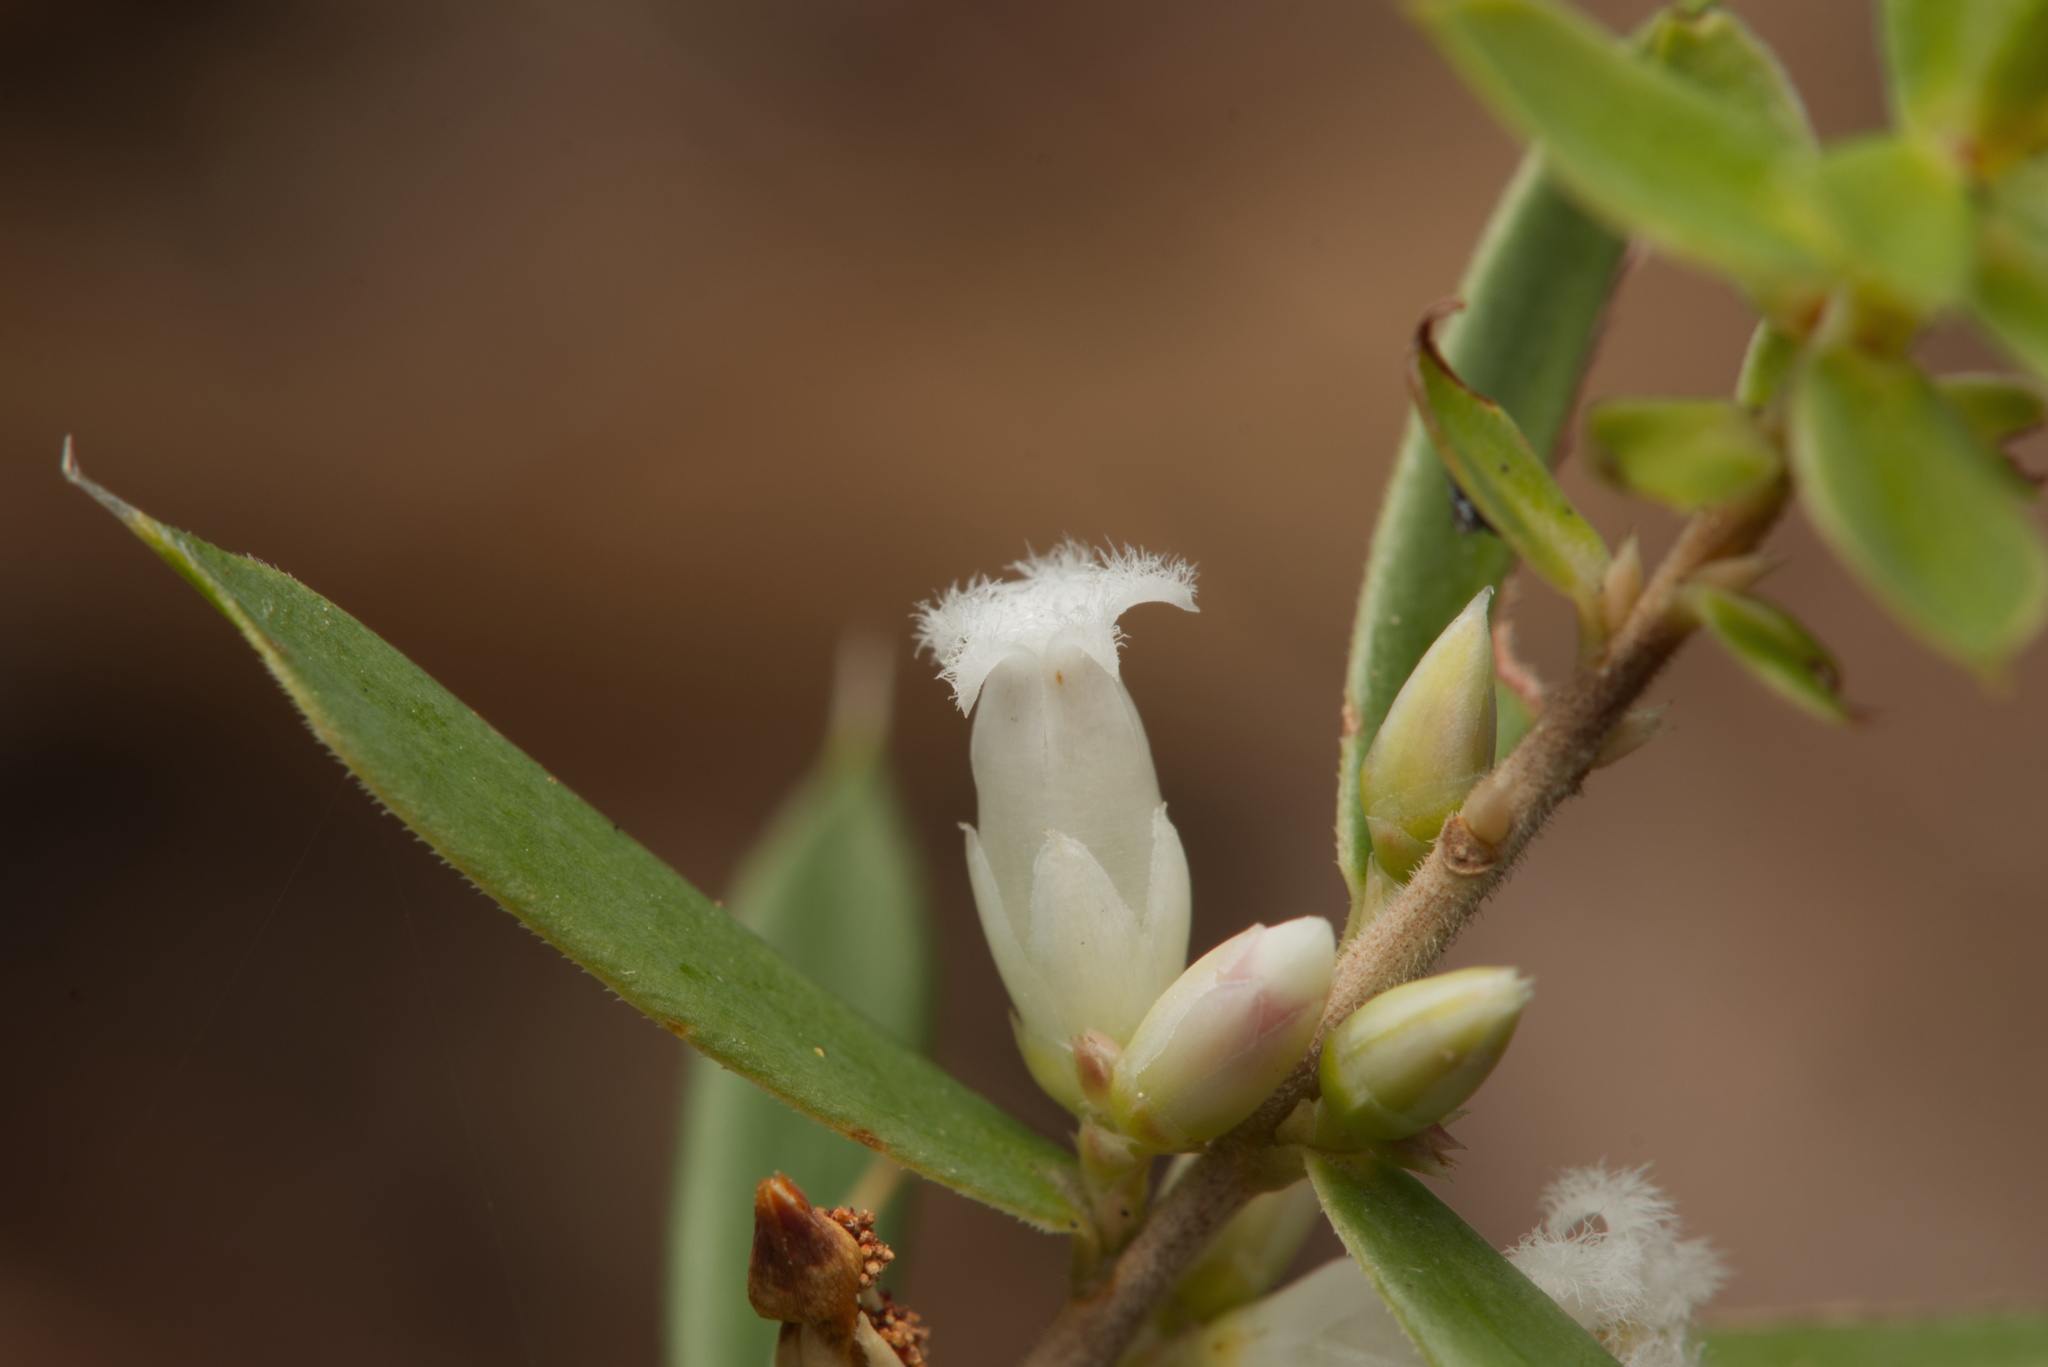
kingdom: Plantae
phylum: Tracheophyta
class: Magnoliopsida
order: Ericales
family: Ericaceae
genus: Styphelia
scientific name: Styphelia sieberi
